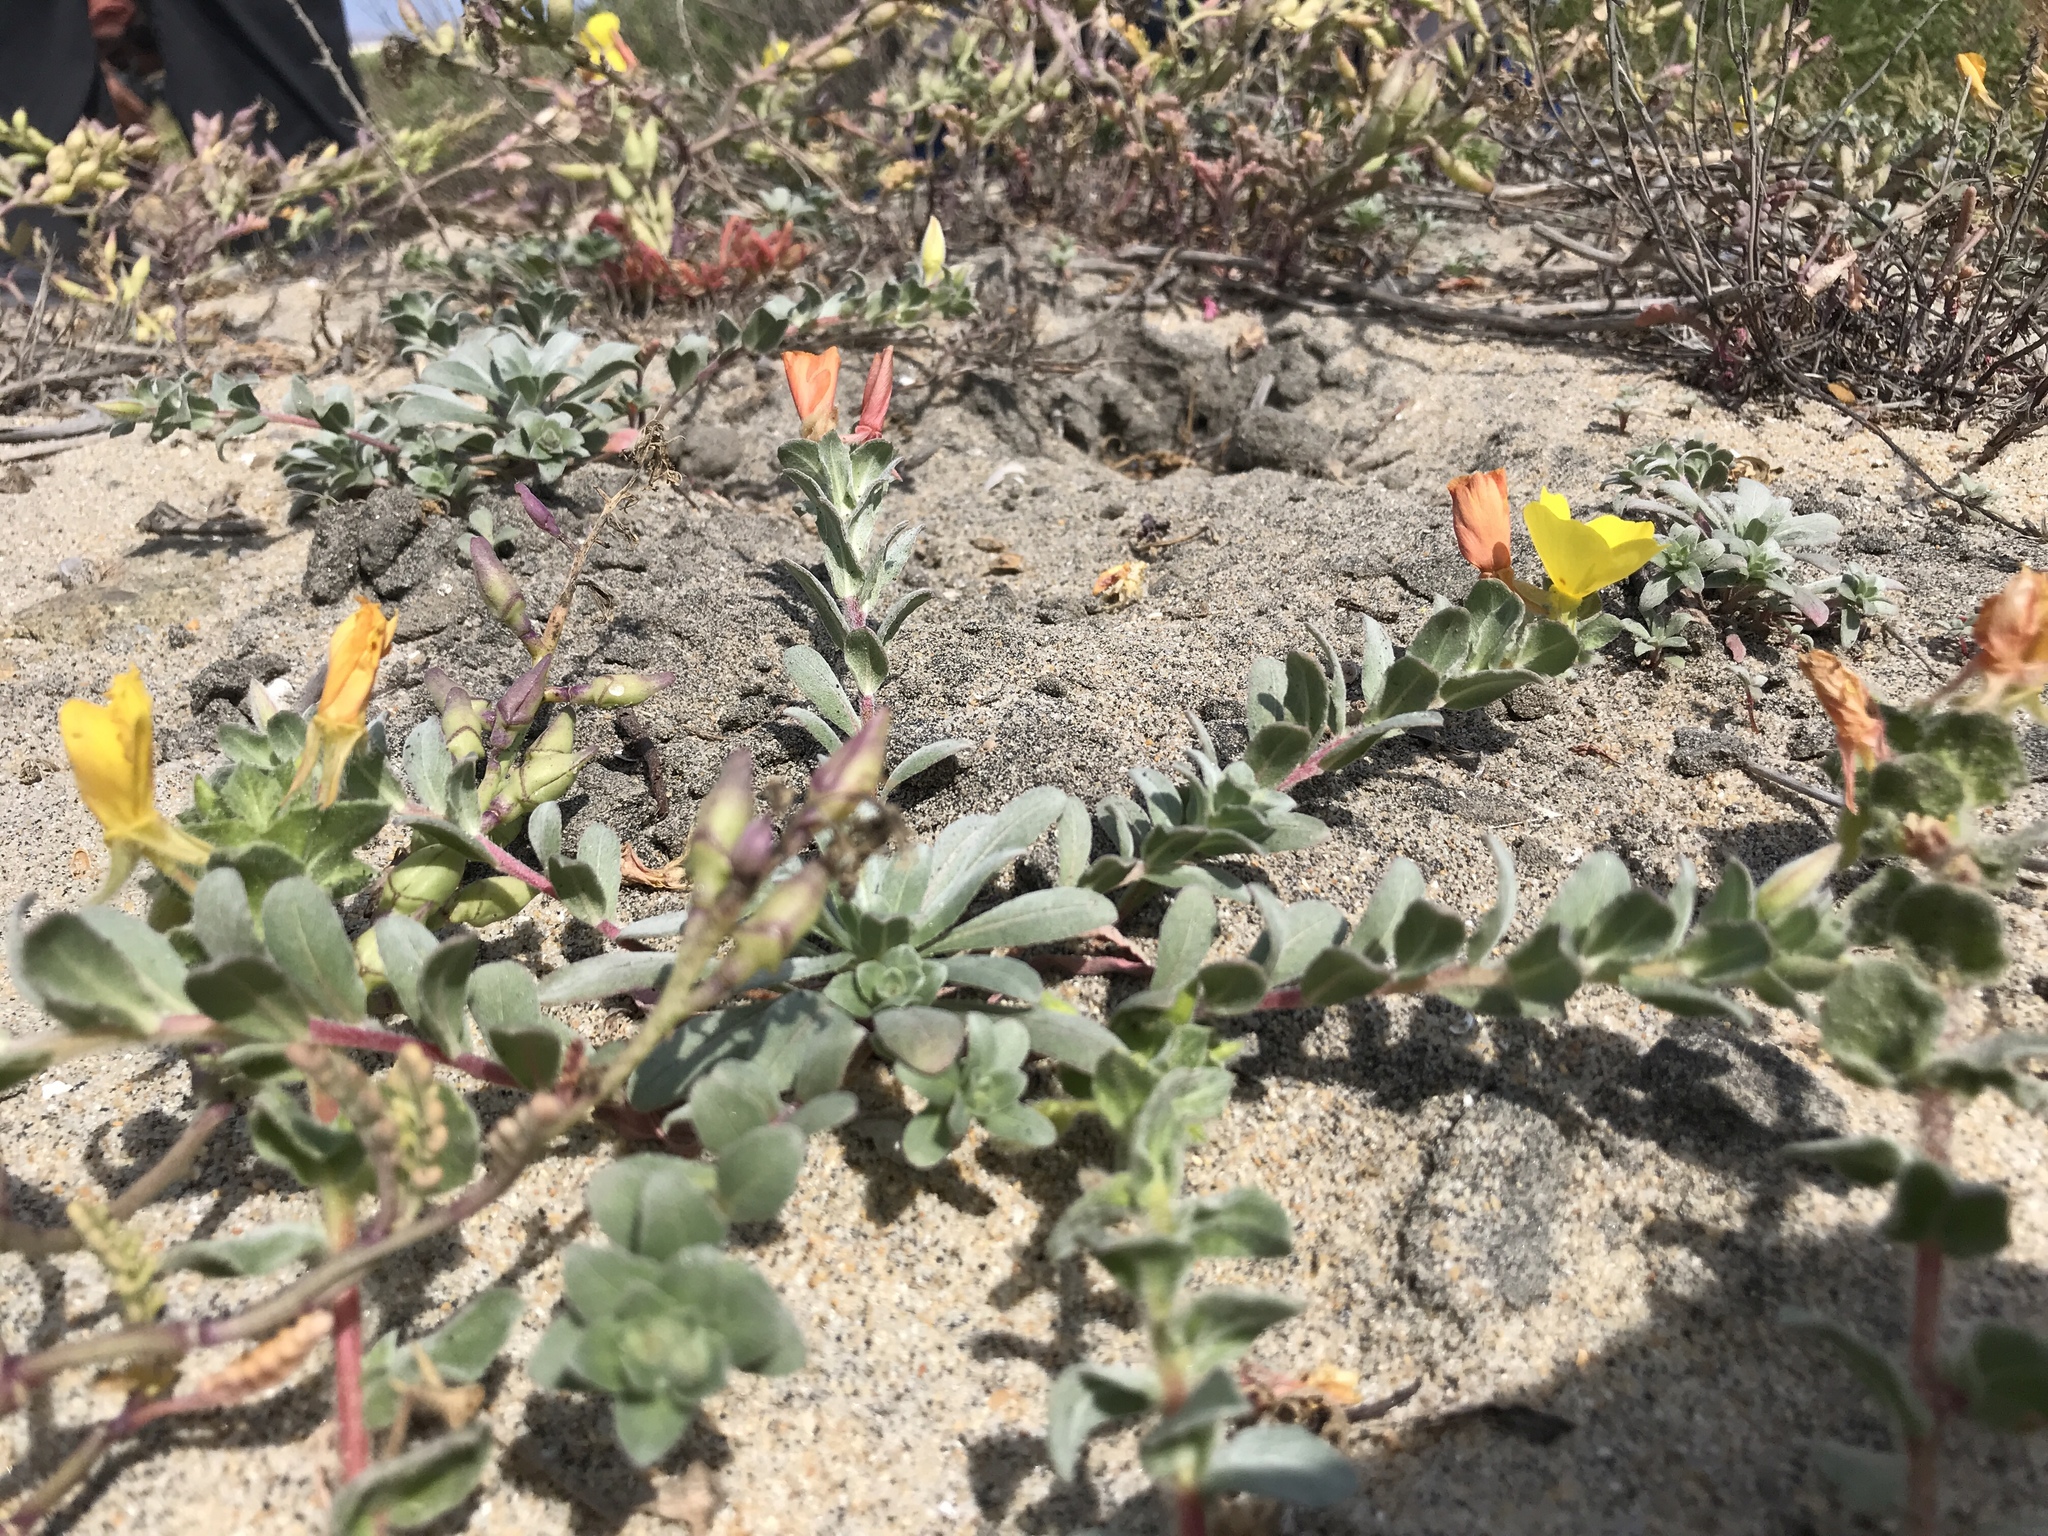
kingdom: Plantae
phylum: Tracheophyta
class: Magnoliopsida
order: Myrtales
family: Onagraceae
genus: Camissoniopsis
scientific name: Camissoniopsis cheiranthifolia
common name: Beach suncup
